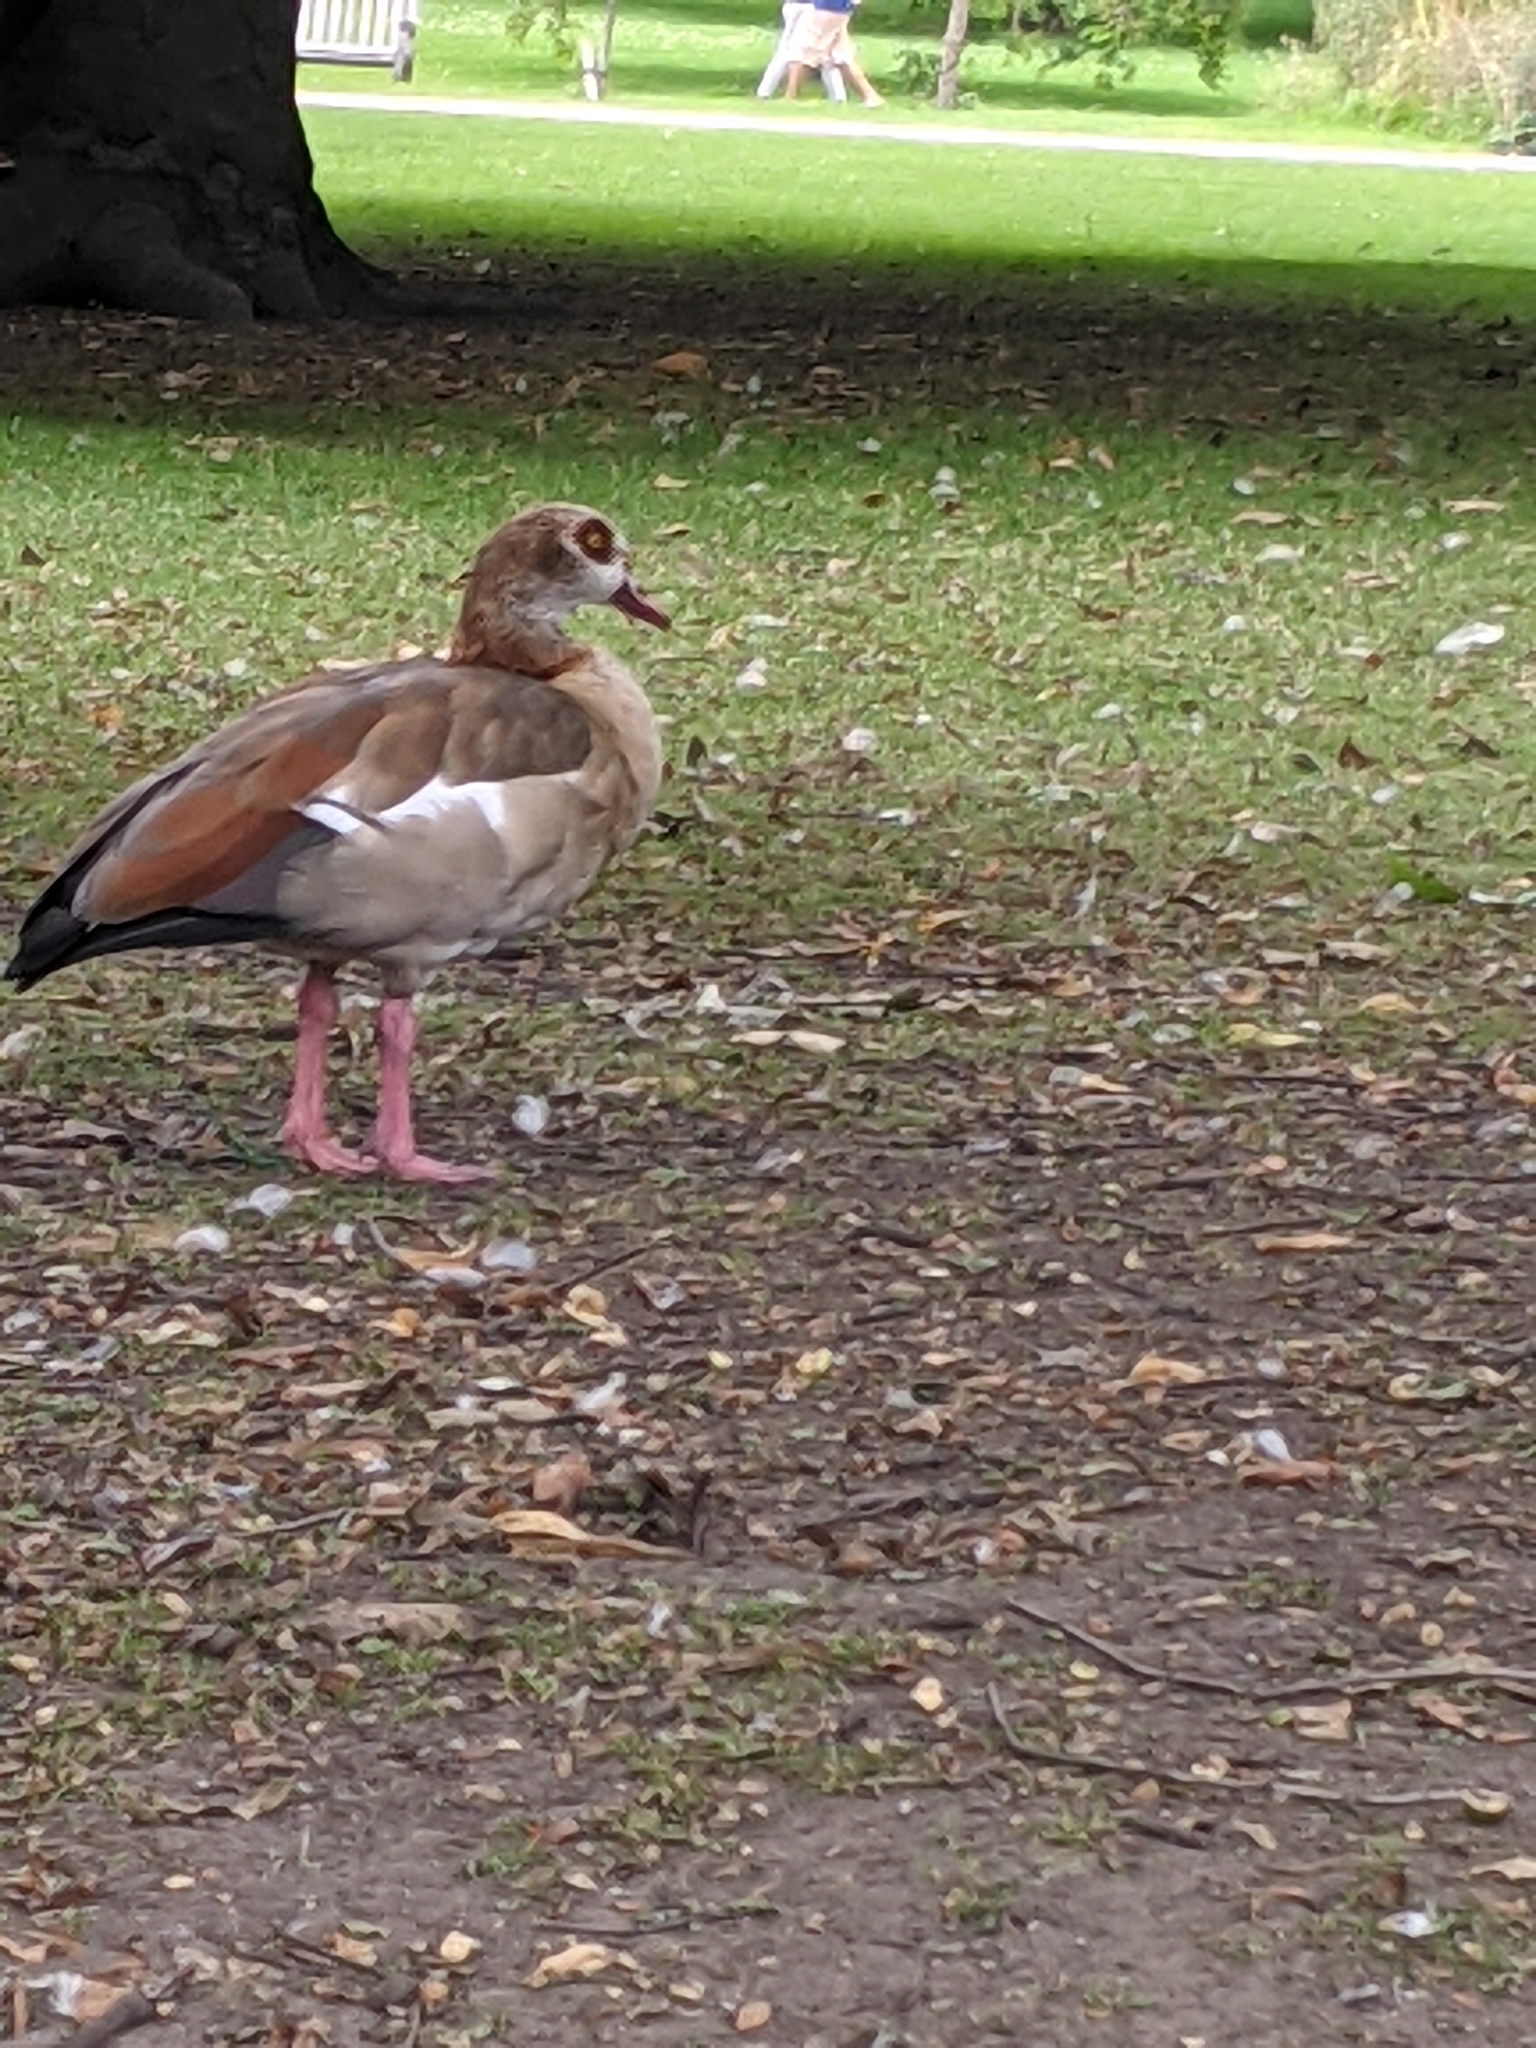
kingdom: Animalia
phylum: Chordata
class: Aves
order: Anseriformes
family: Anatidae
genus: Alopochen
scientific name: Alopochen aegyptiaca
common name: Egyptian goose
